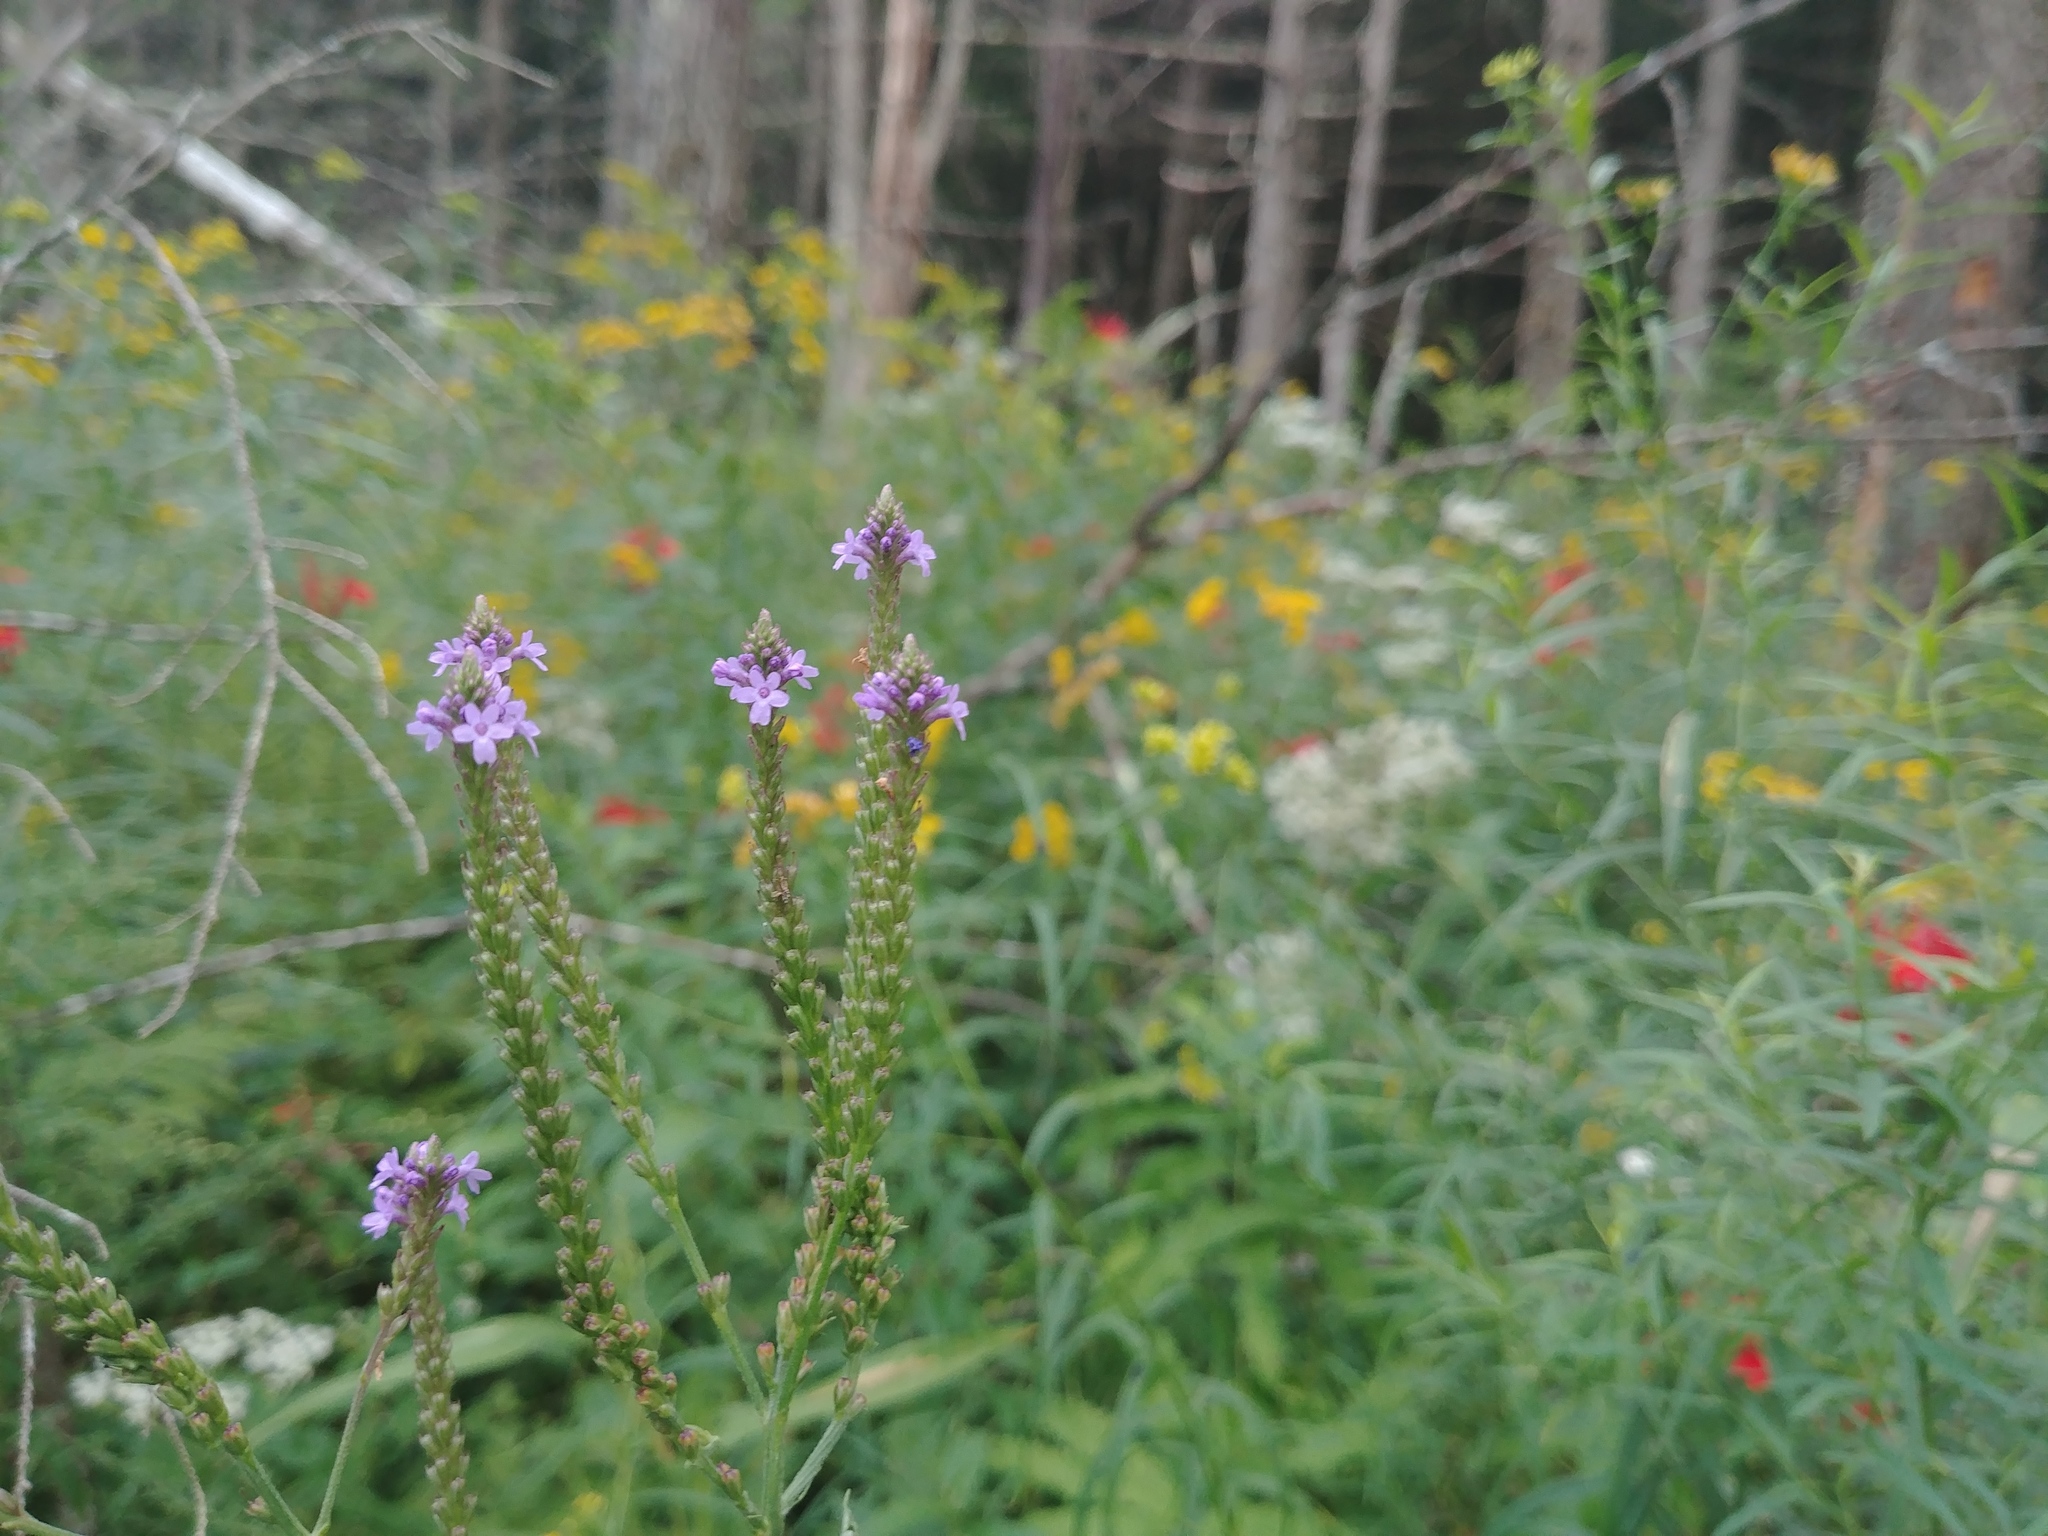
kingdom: Plantae
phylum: Tracheophyta
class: Magnoliopsida
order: Lamiales
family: Verbenaceae
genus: Verbena
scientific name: Verbena hastata
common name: American blue vervain
